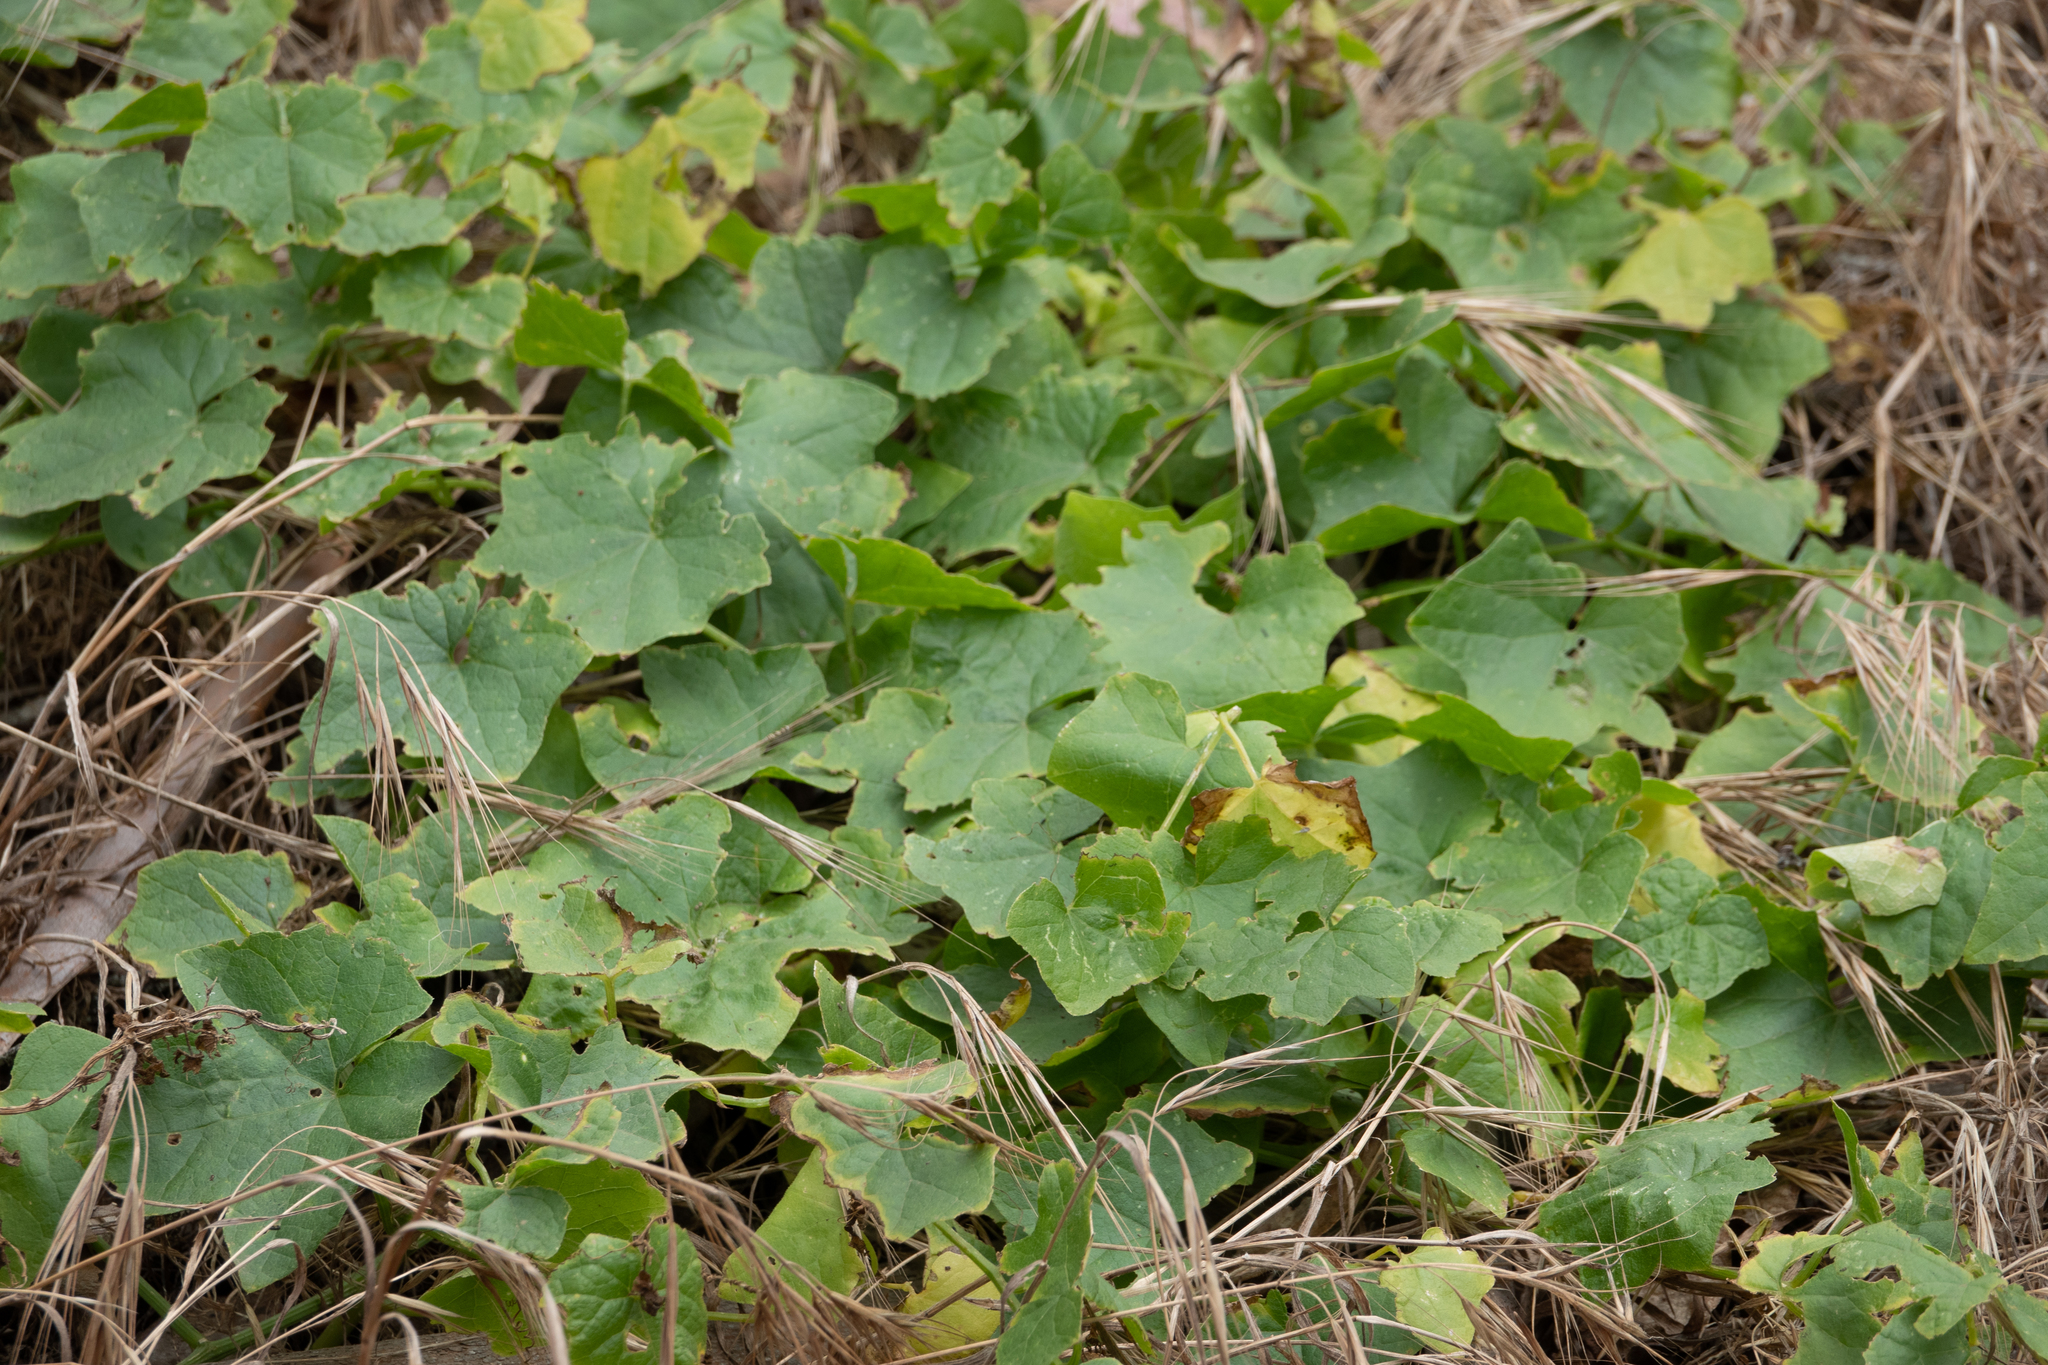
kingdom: Plantae
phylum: Tracheophyta
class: Magnoliopsida
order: Cucurbitales
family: Cucurbitaceae
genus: Marah
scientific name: Marah fabacea
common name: California manroot
